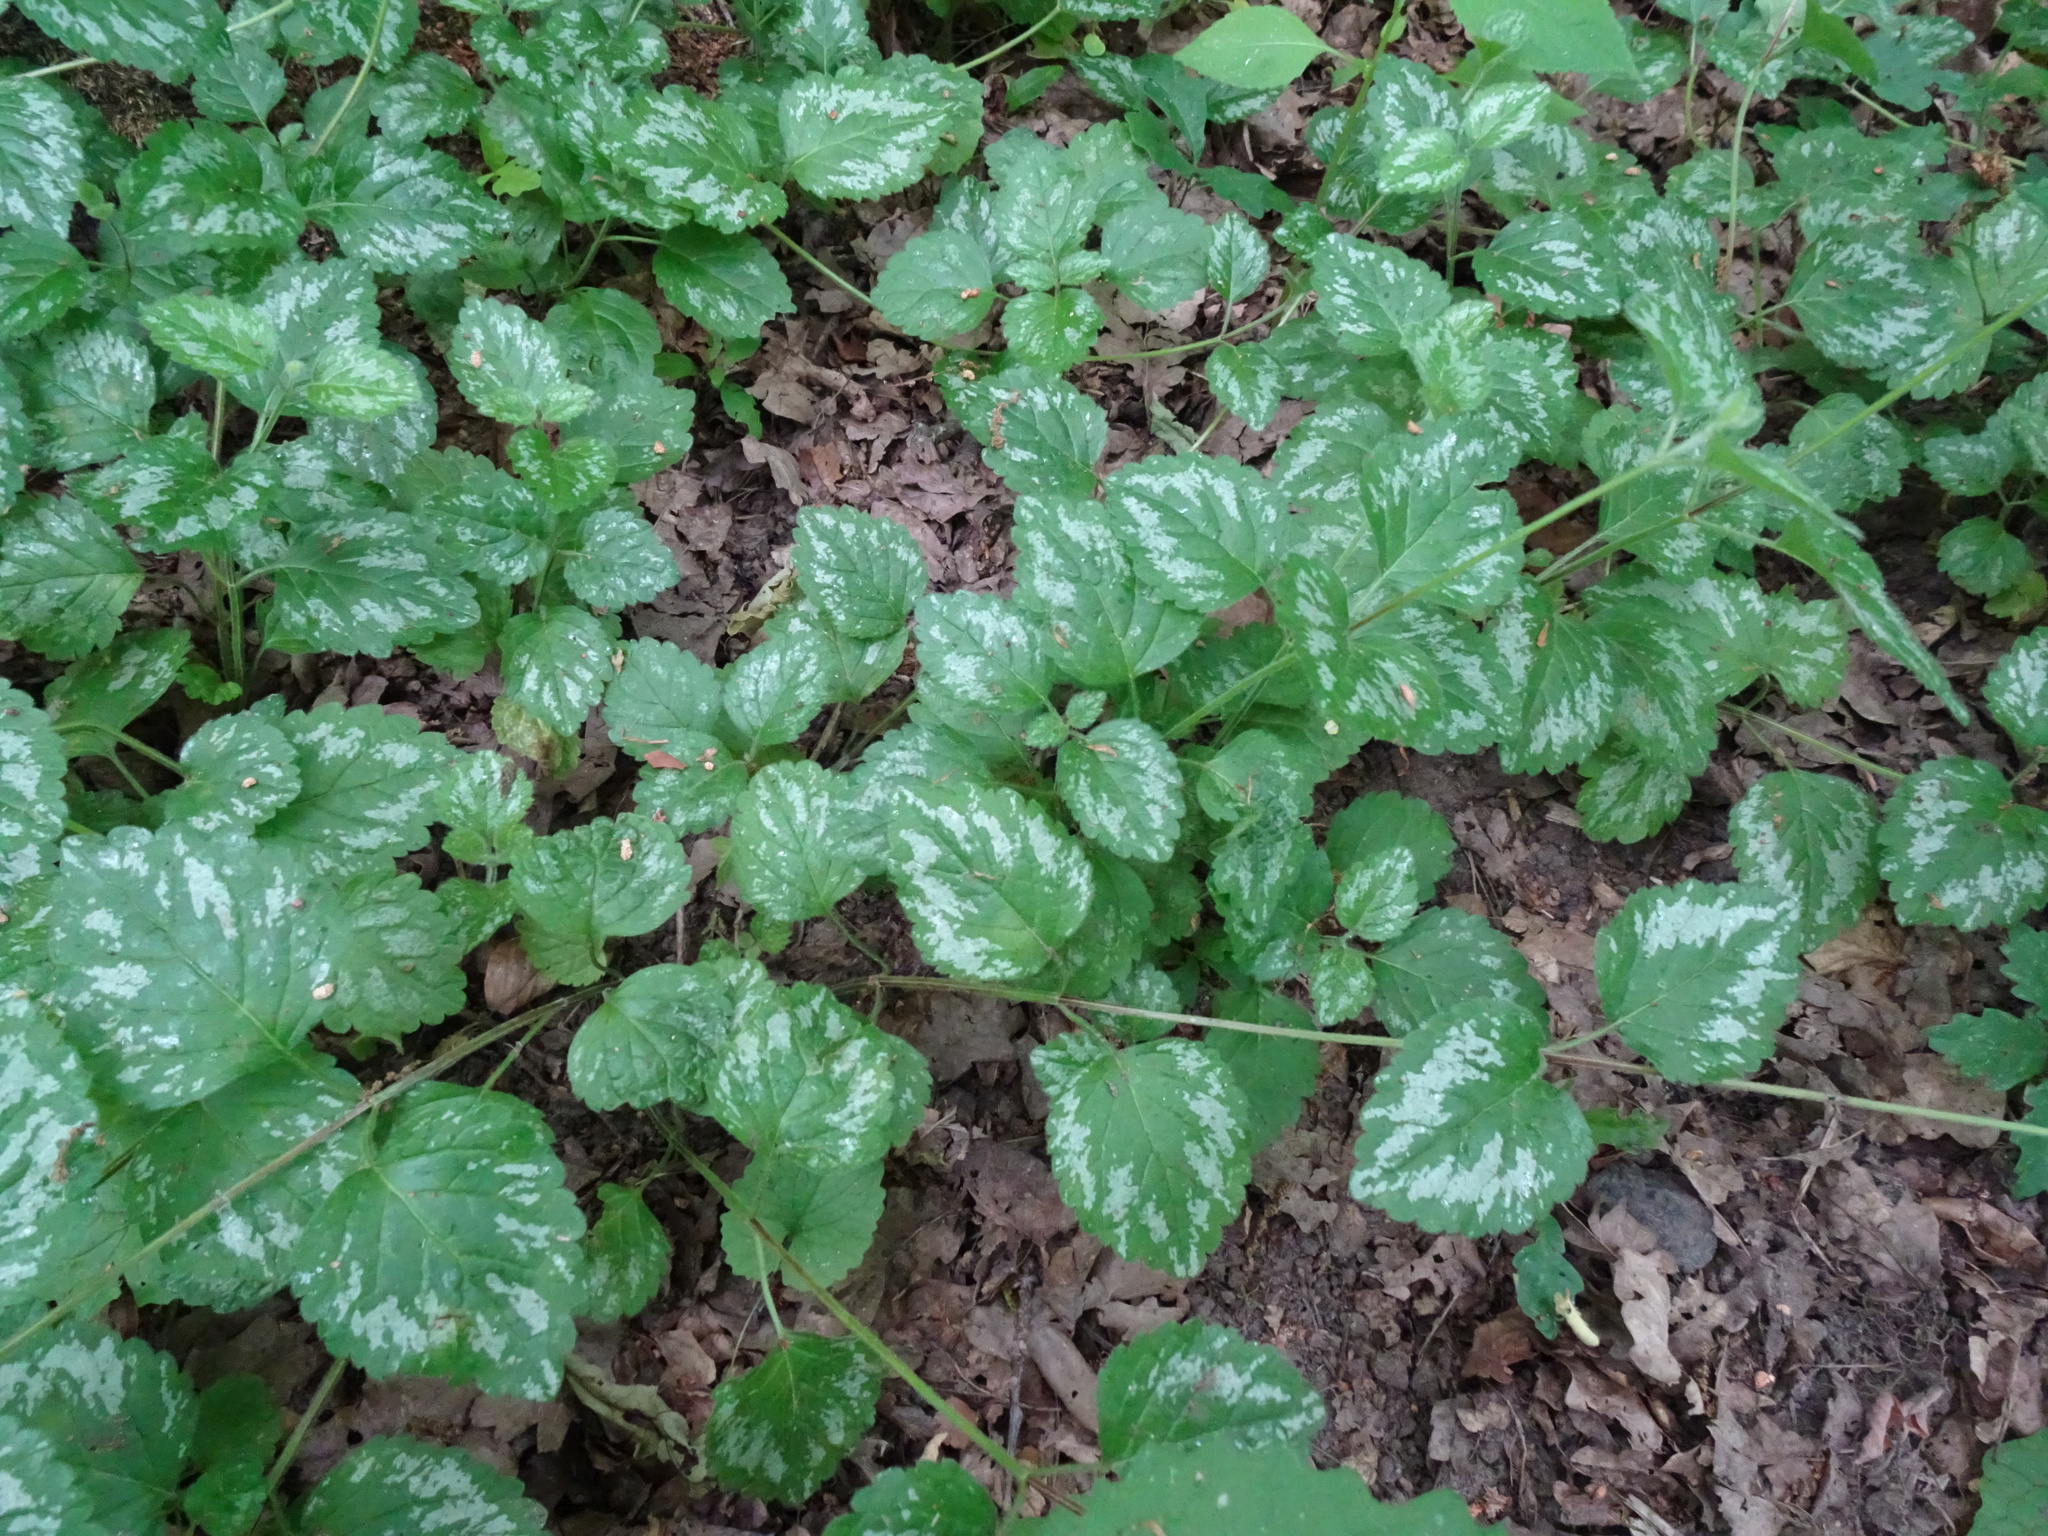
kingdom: Plantae
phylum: Tracheophyta
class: Magnoliopsida
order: Lamiales
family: Lamiaceae
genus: Lamium
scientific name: Lamium galeobdolon
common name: Yellow archangel
